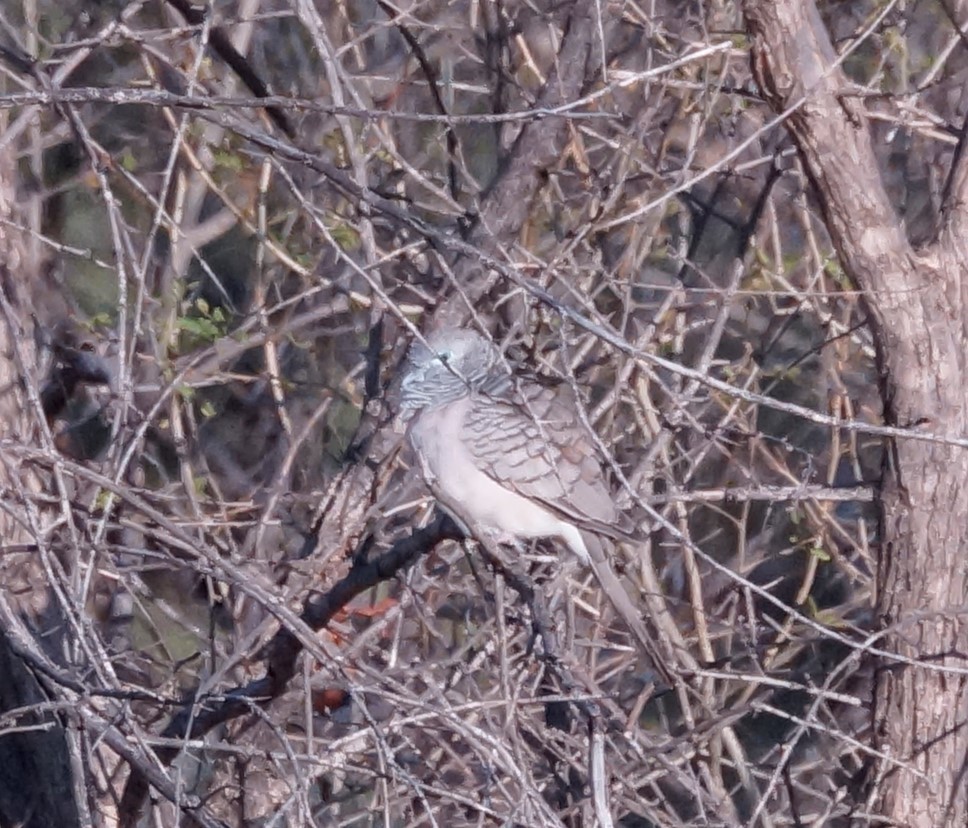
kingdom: Animalia
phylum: Chordata
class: Aves
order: Columbiformes
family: Columbidae
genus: Geopelia
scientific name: Geopelia placida
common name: Peaceful dove
